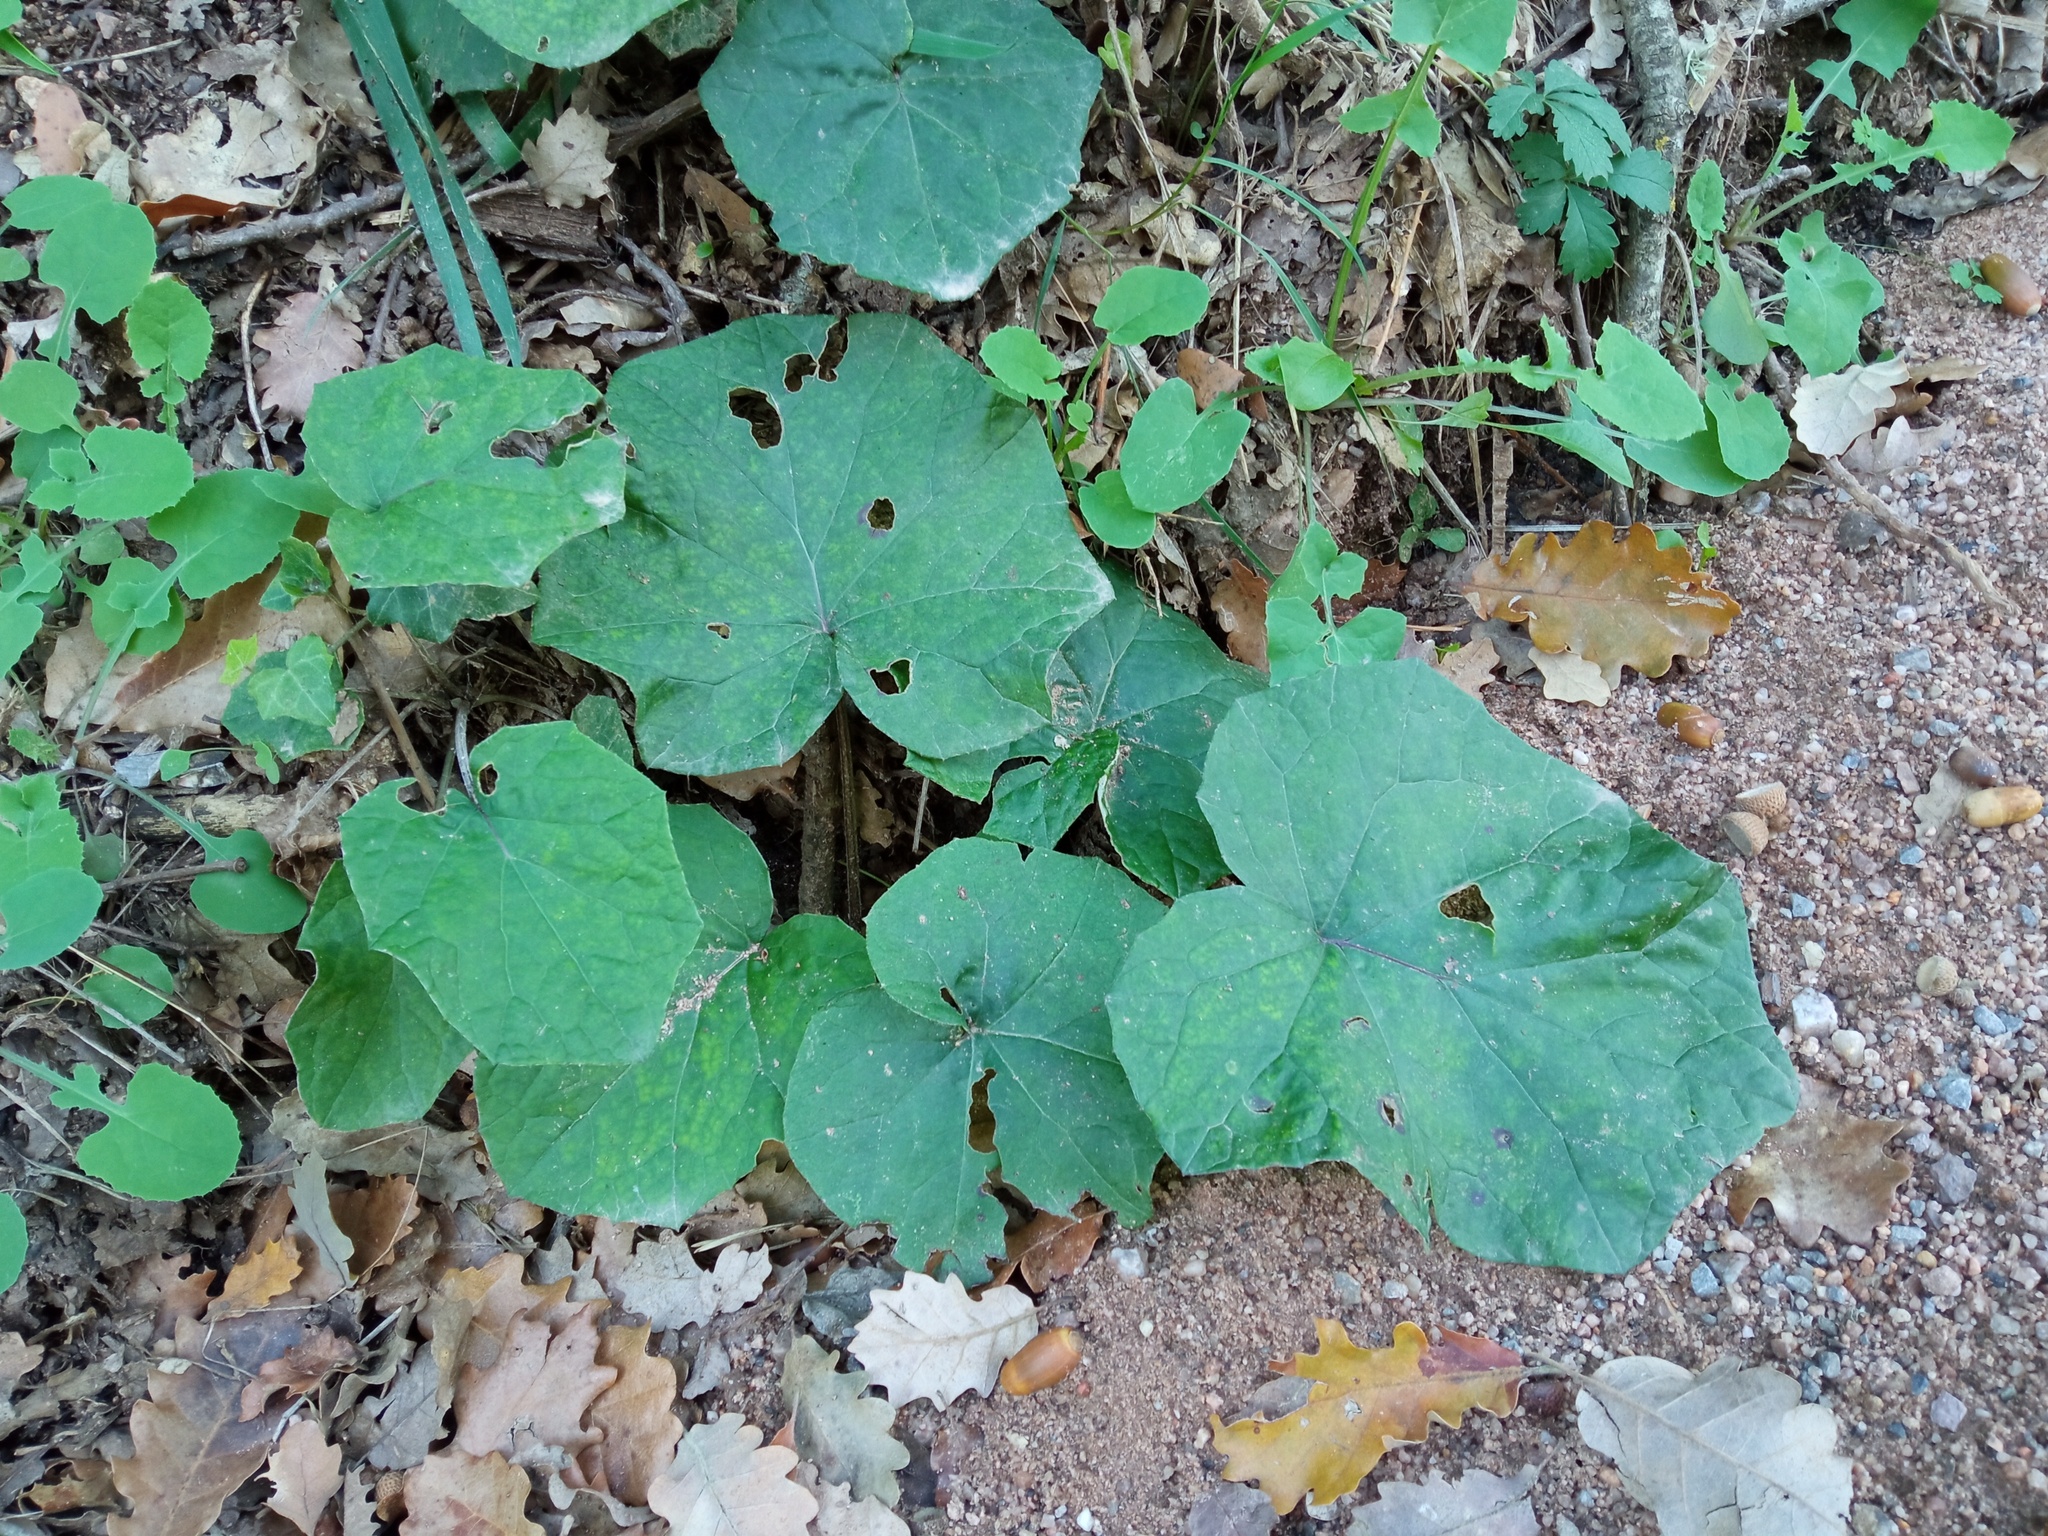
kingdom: Plantae
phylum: Tracheophyta
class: Magnoliopsida
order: Asterales
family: Asteraceae
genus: Tussilago
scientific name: Tussilago farfara
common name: Coltsfoot
